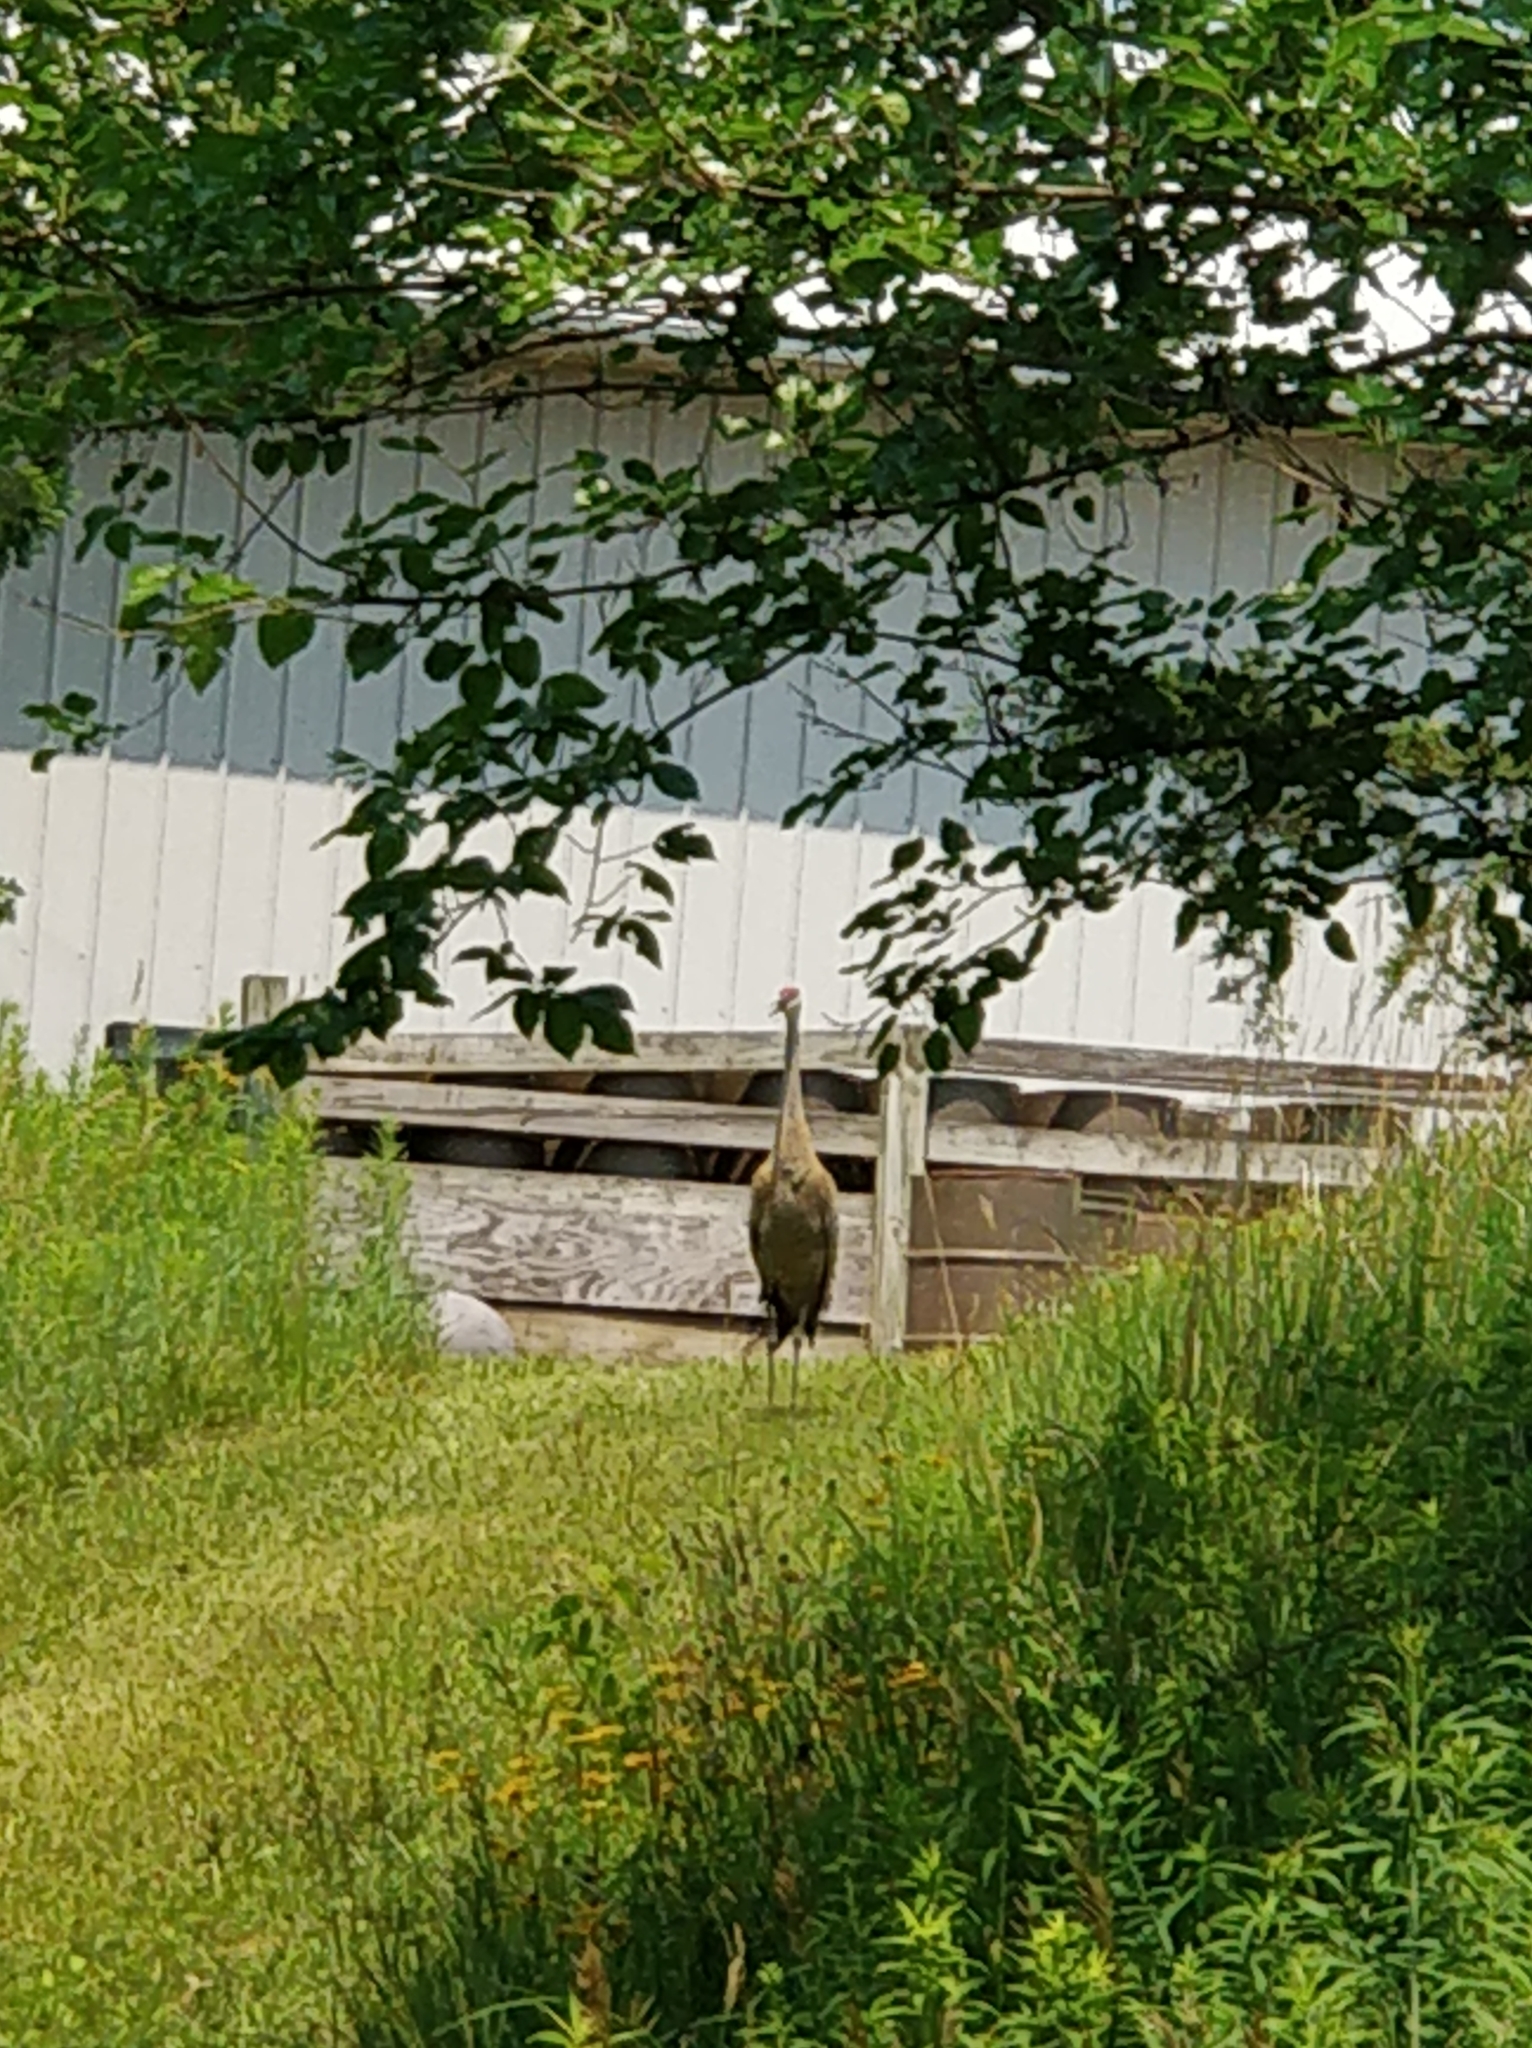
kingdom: Animalia
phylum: Chordata
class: Aves
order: Gruiformes
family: Gruidae
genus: Grus
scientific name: Grus canadensis
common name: Sandhill crane
